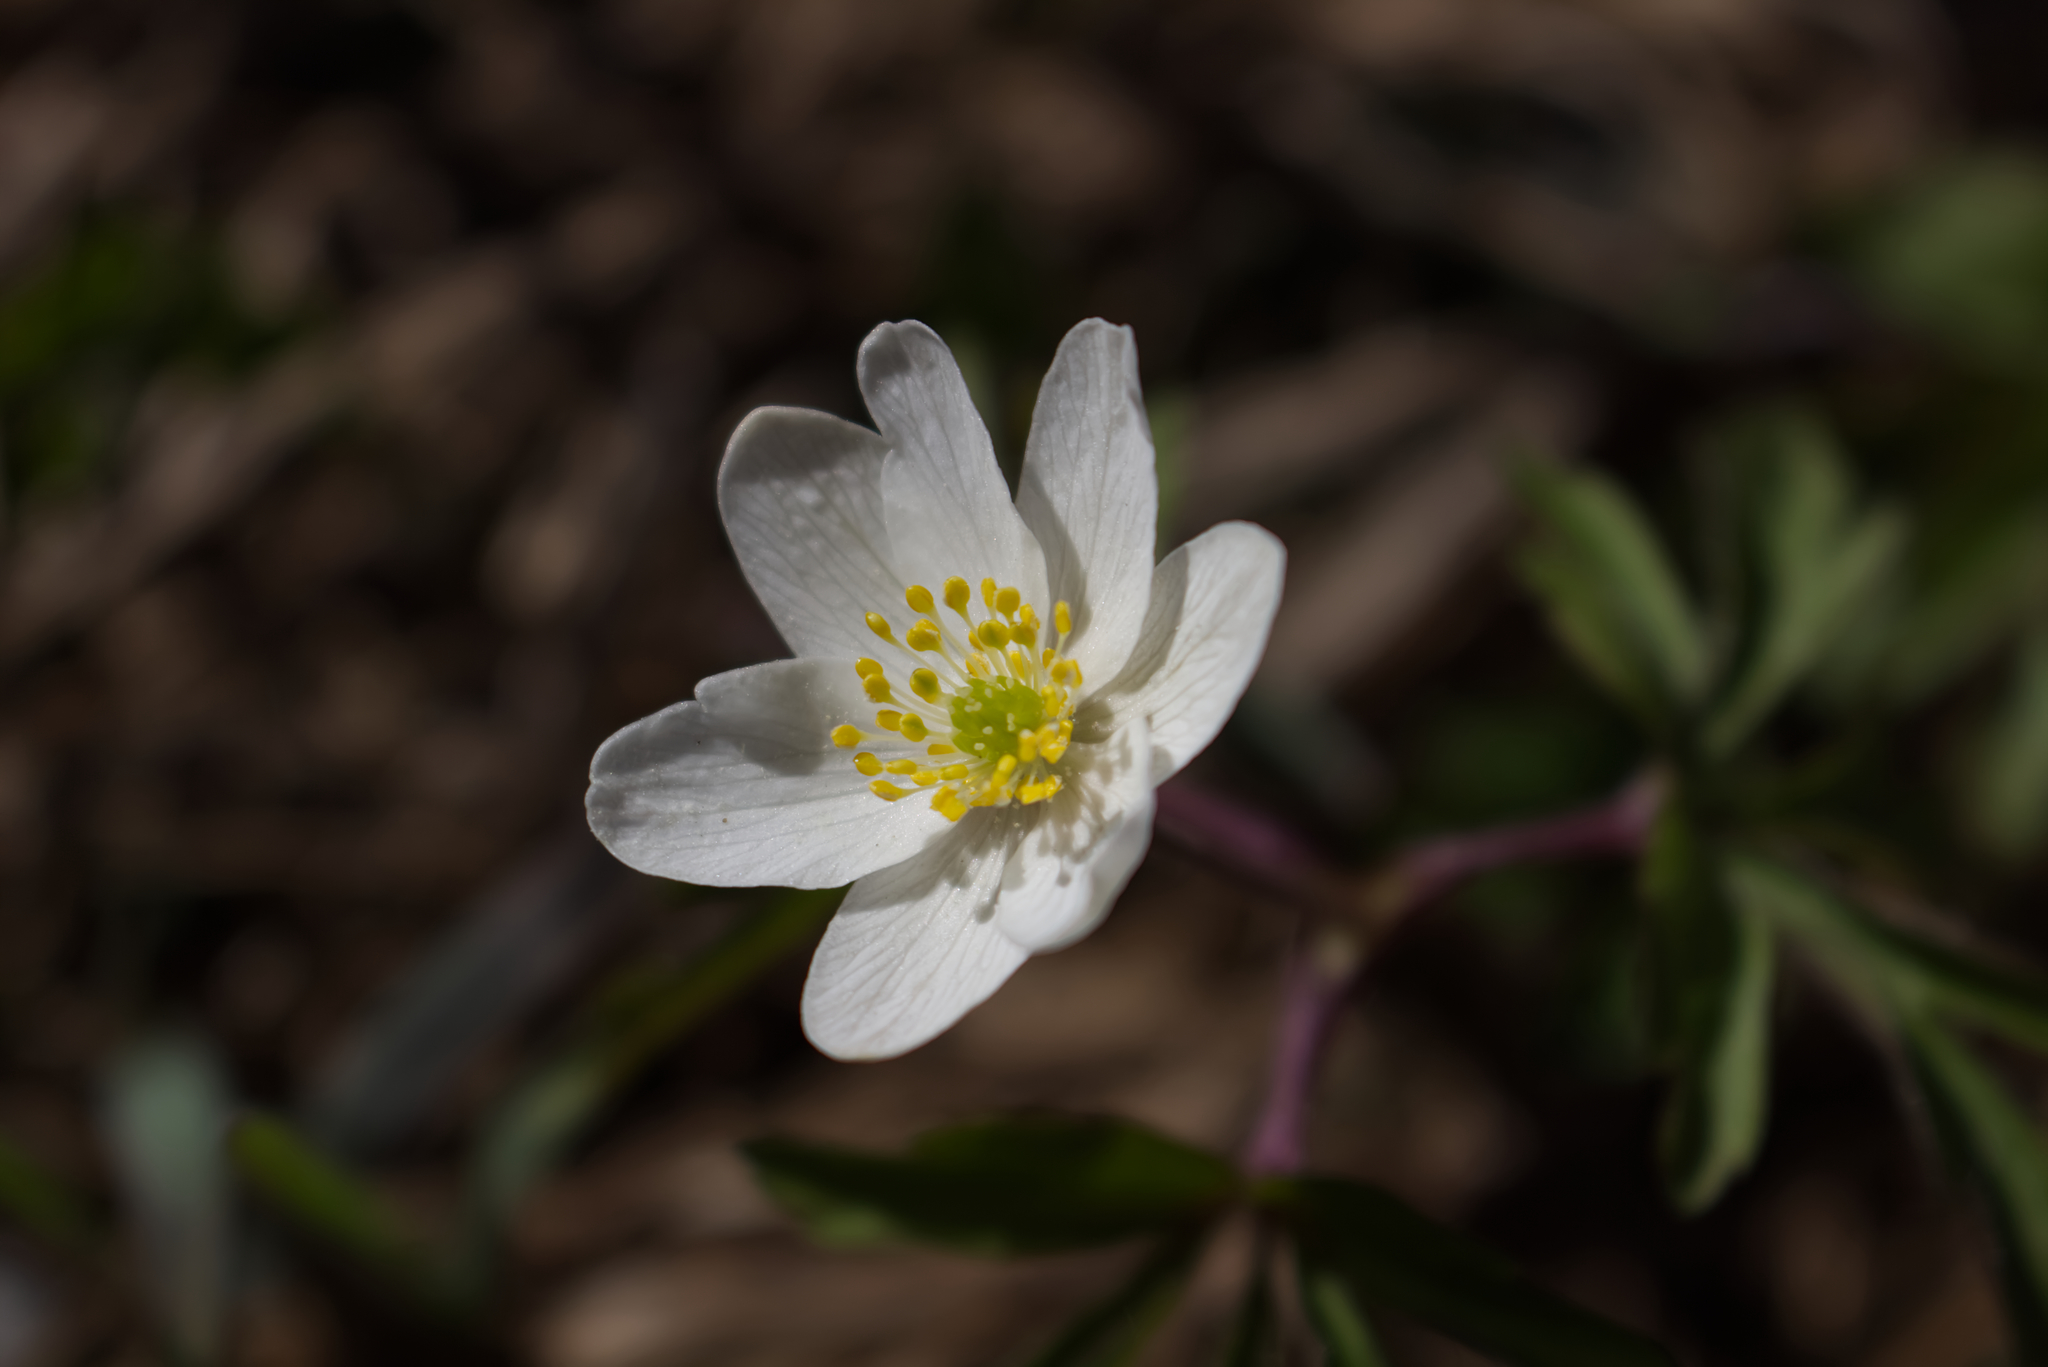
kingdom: Plantae
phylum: Tracheophyta
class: Magnoliopsida
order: Ranunculales
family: Ranunculaceae
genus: Anemone
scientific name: Anemone nemorosa
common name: Wood anemone
